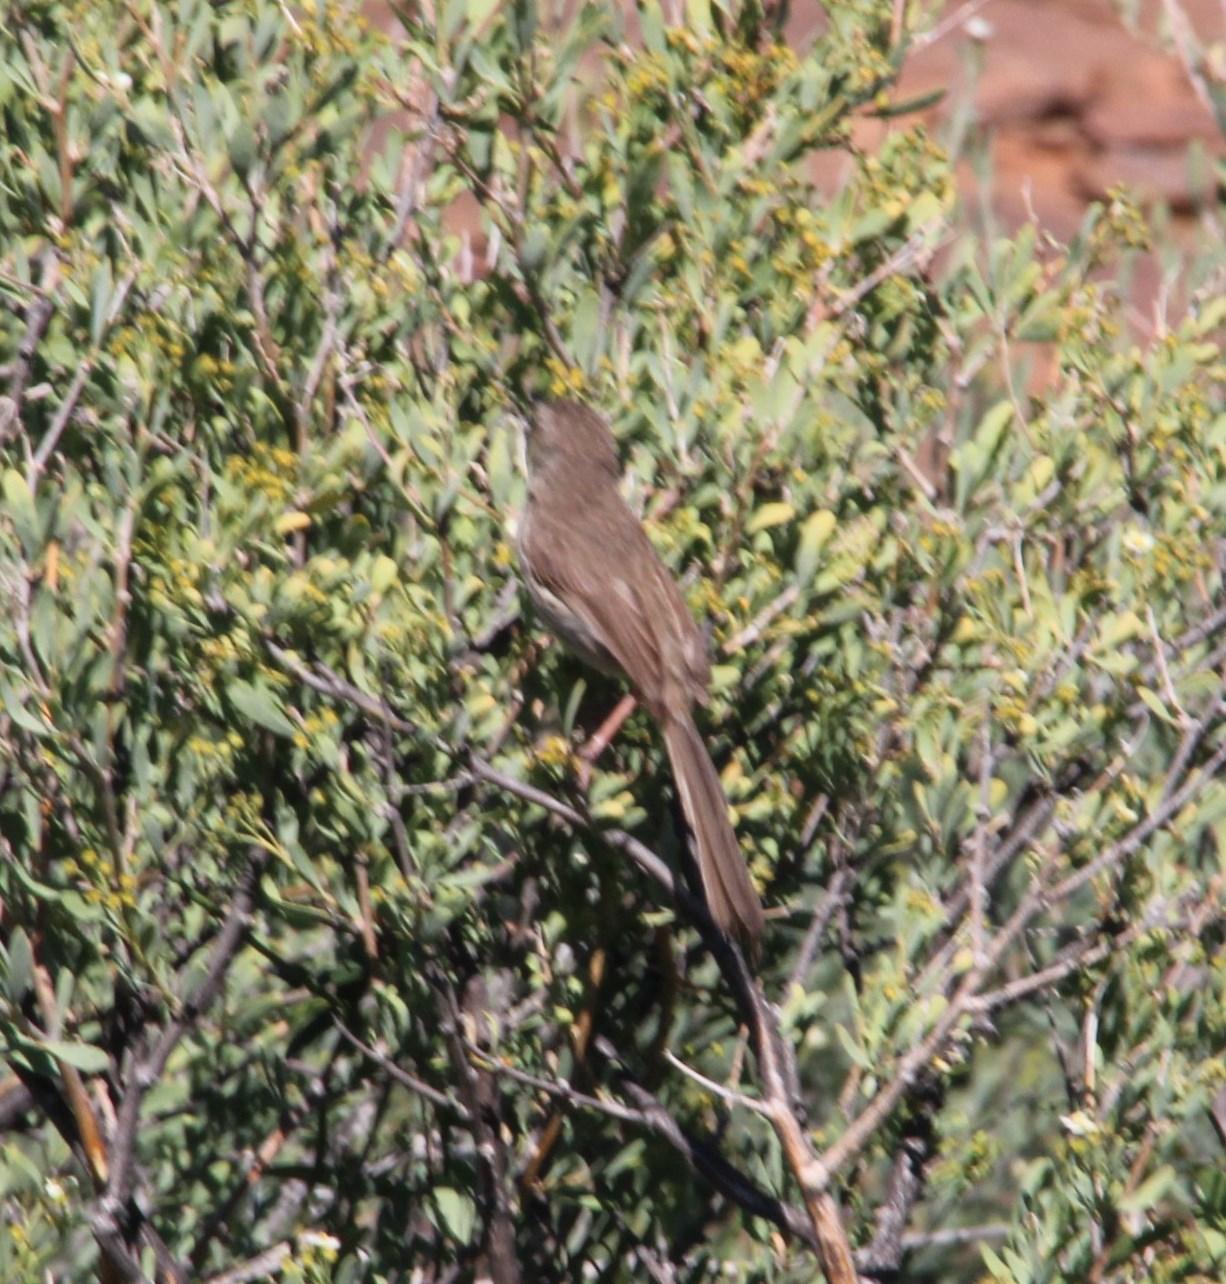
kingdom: Animalia
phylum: Chordata
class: Aves
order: Passeriformes
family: Cisticolidae
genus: Prinia
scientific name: Prinia maculosa
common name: Karoo prinia
